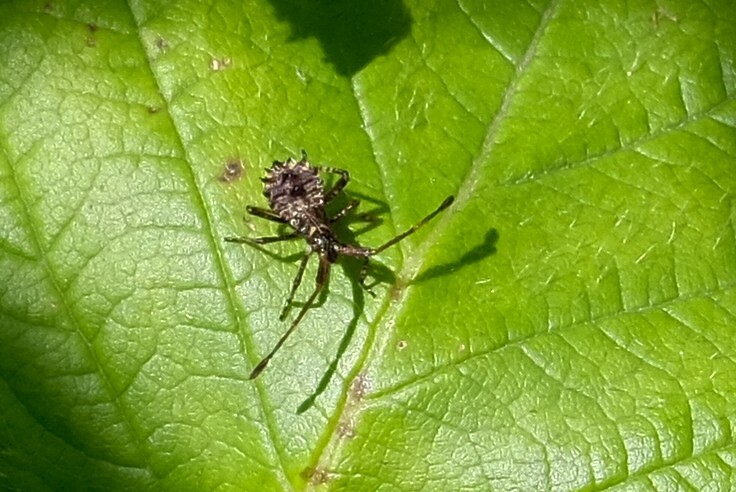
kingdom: Animalia
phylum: Arthropoda
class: Insecta
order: Hemiptera
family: Coreidae
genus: Coreus
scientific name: Coreus marginatus
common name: Dock bug
